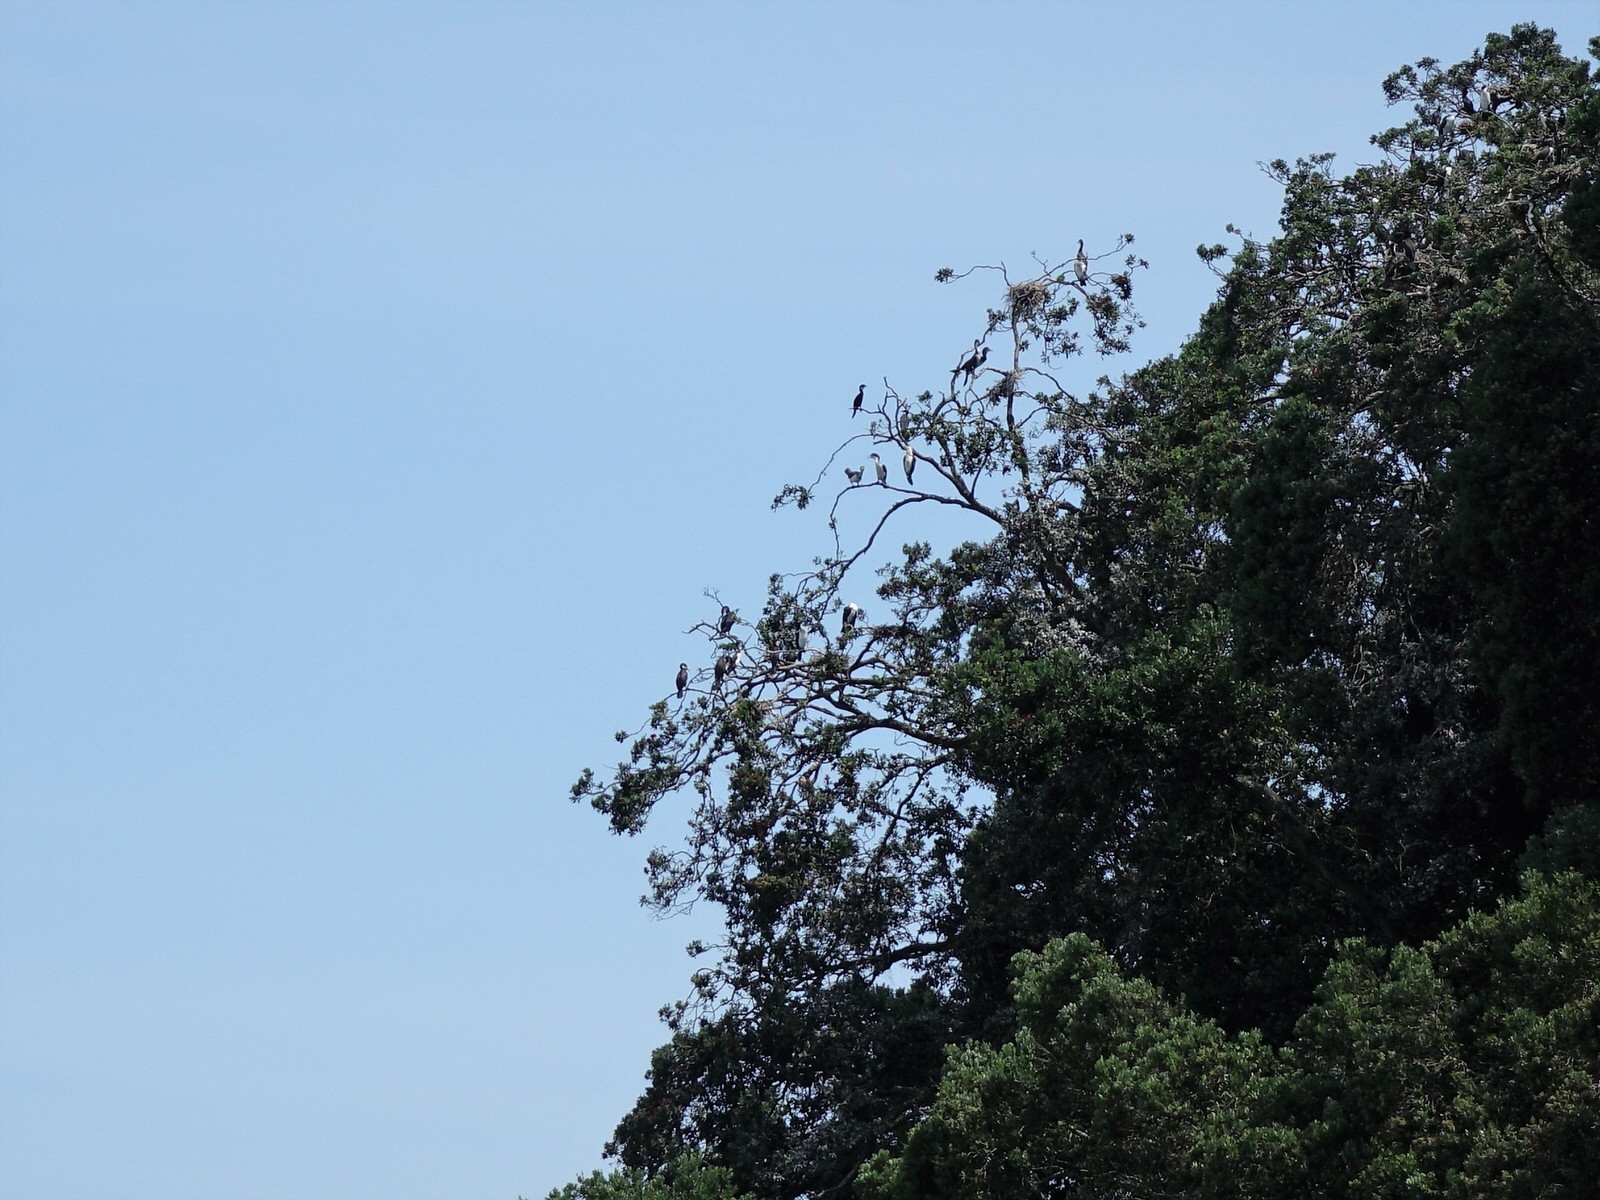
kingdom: Animalia
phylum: Chordata
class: Aves
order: Suliformes
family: Phalacrocoracidae
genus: Phalacrocorax
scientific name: Phalacrocorax varius
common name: Pied cormorant
